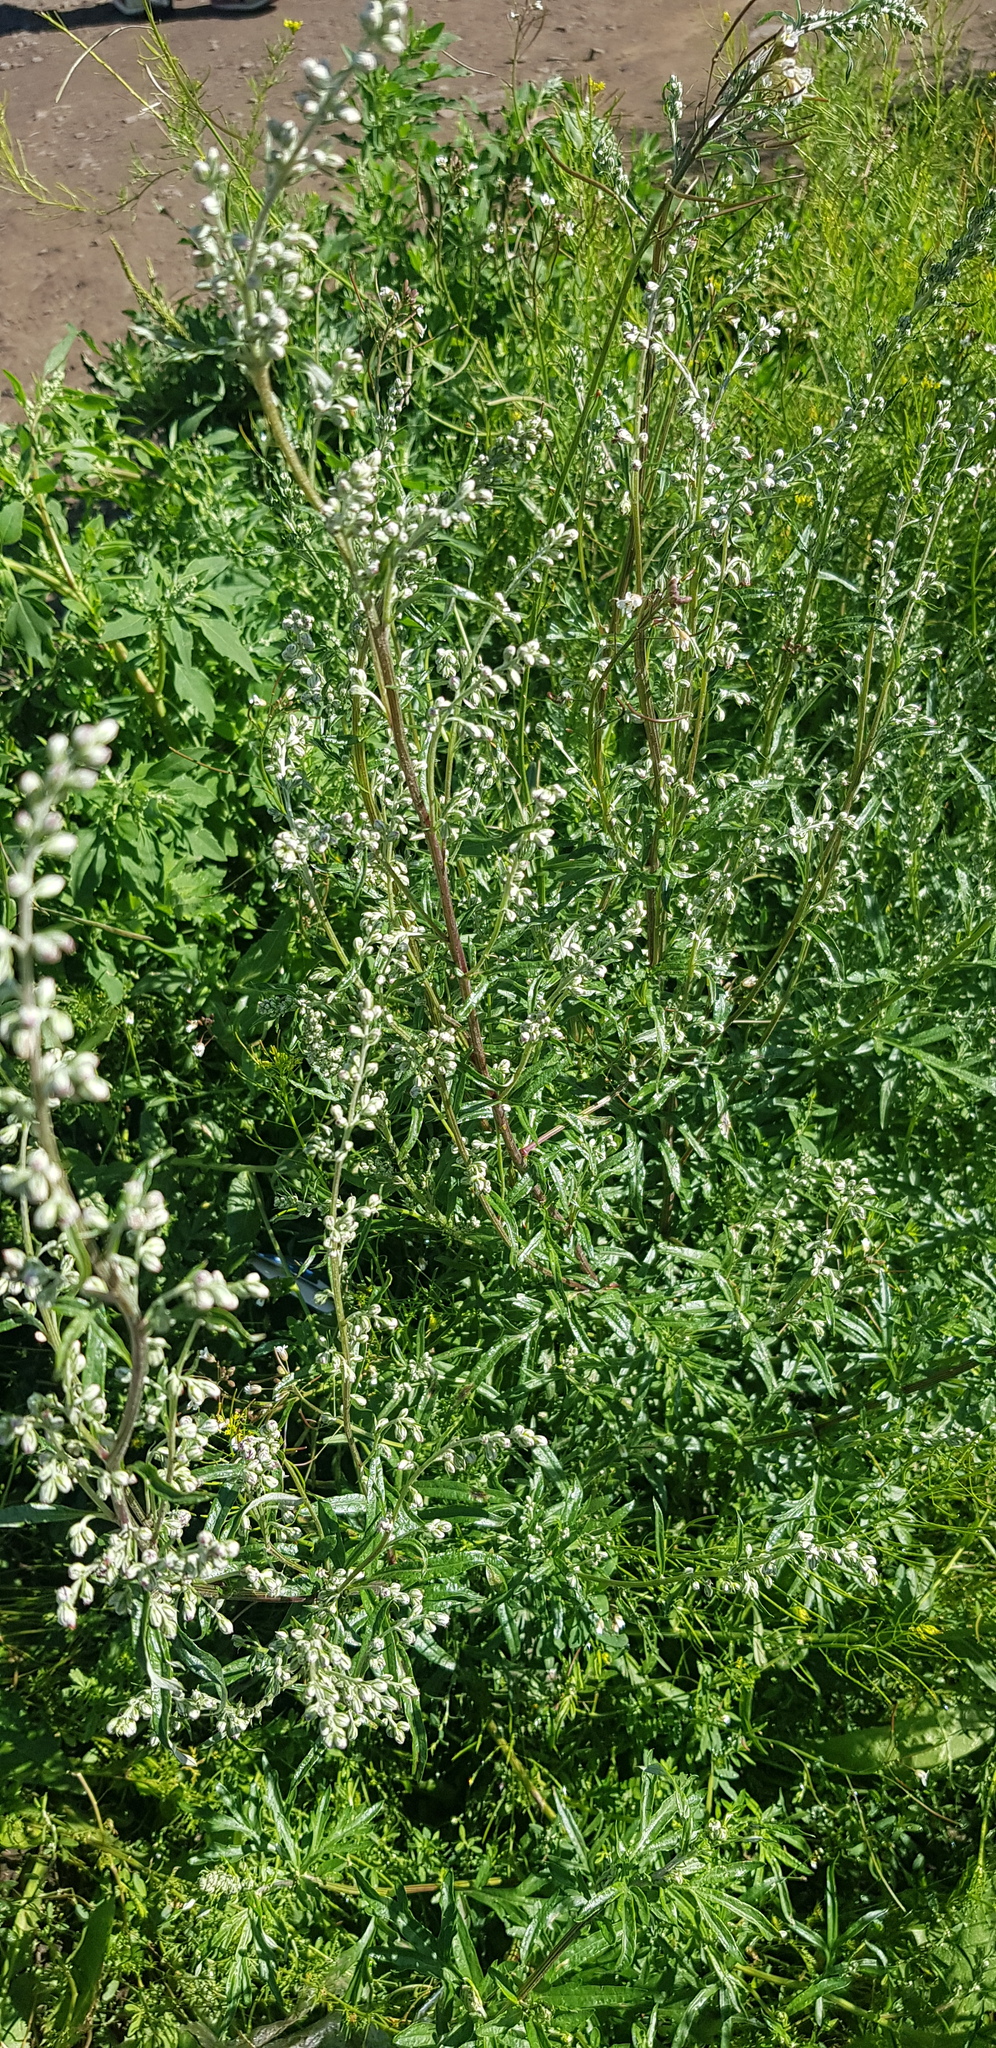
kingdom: Plantae
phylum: Tracheophyta
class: Magnoliopsida
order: Asterales
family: Asteraceae
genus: Artemisia
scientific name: Artemisia vulgaris
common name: Mugwort
